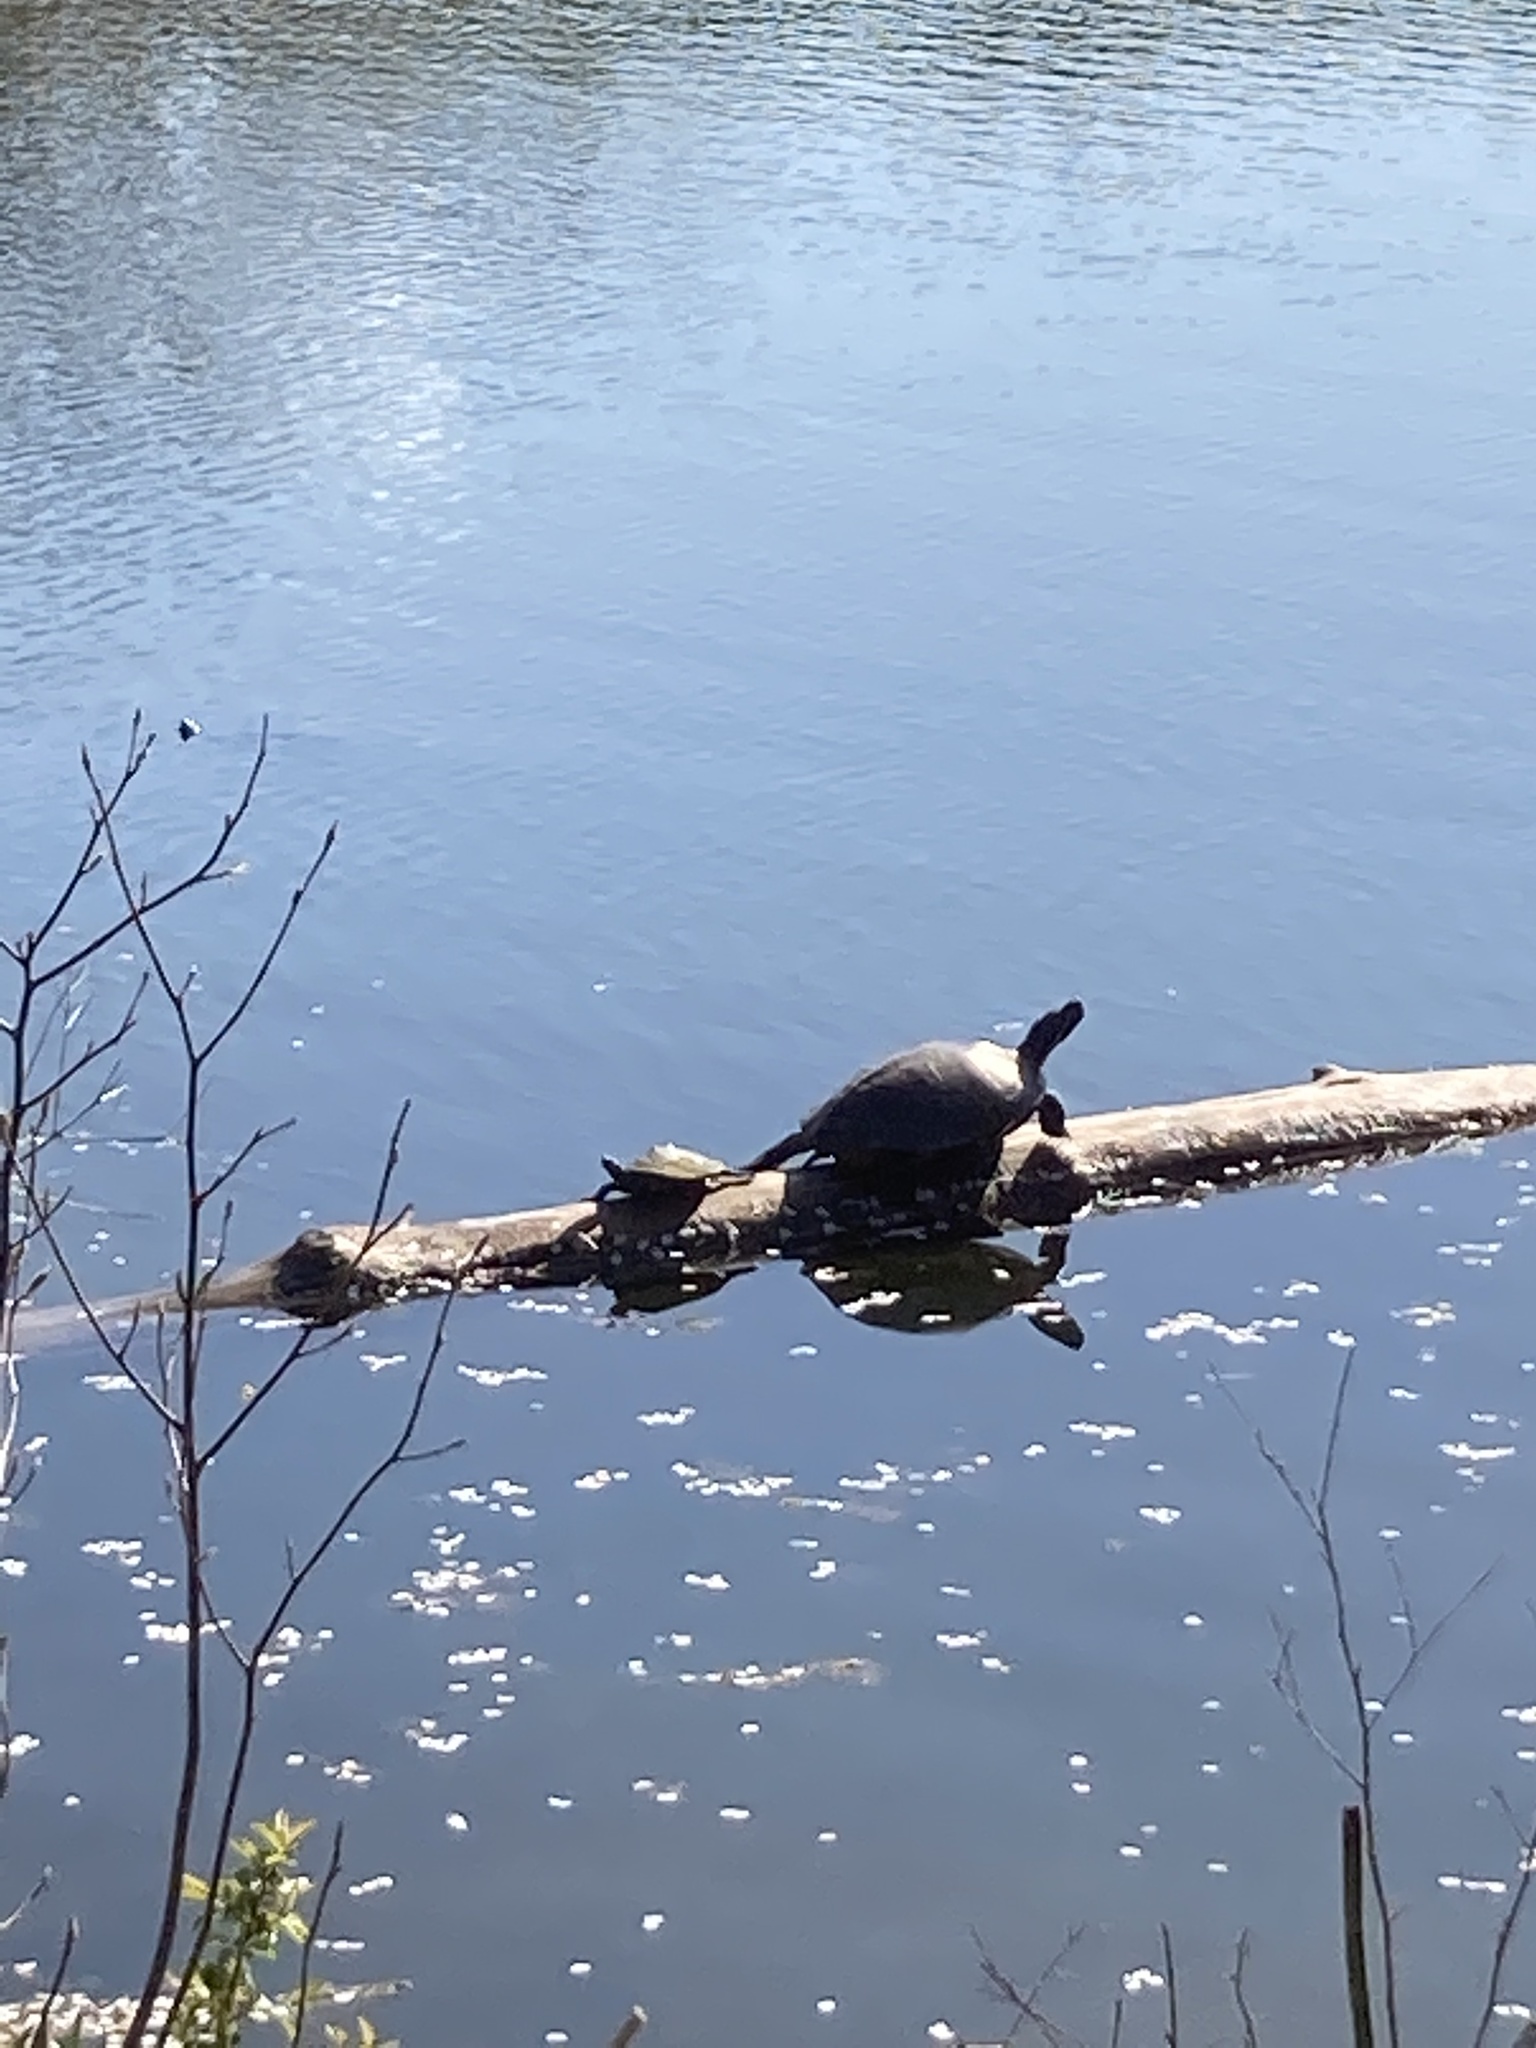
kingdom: Animalia
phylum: Chordata
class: Testudines
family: Emydidae
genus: Trachemys
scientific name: Trachemys scripta
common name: Slider
